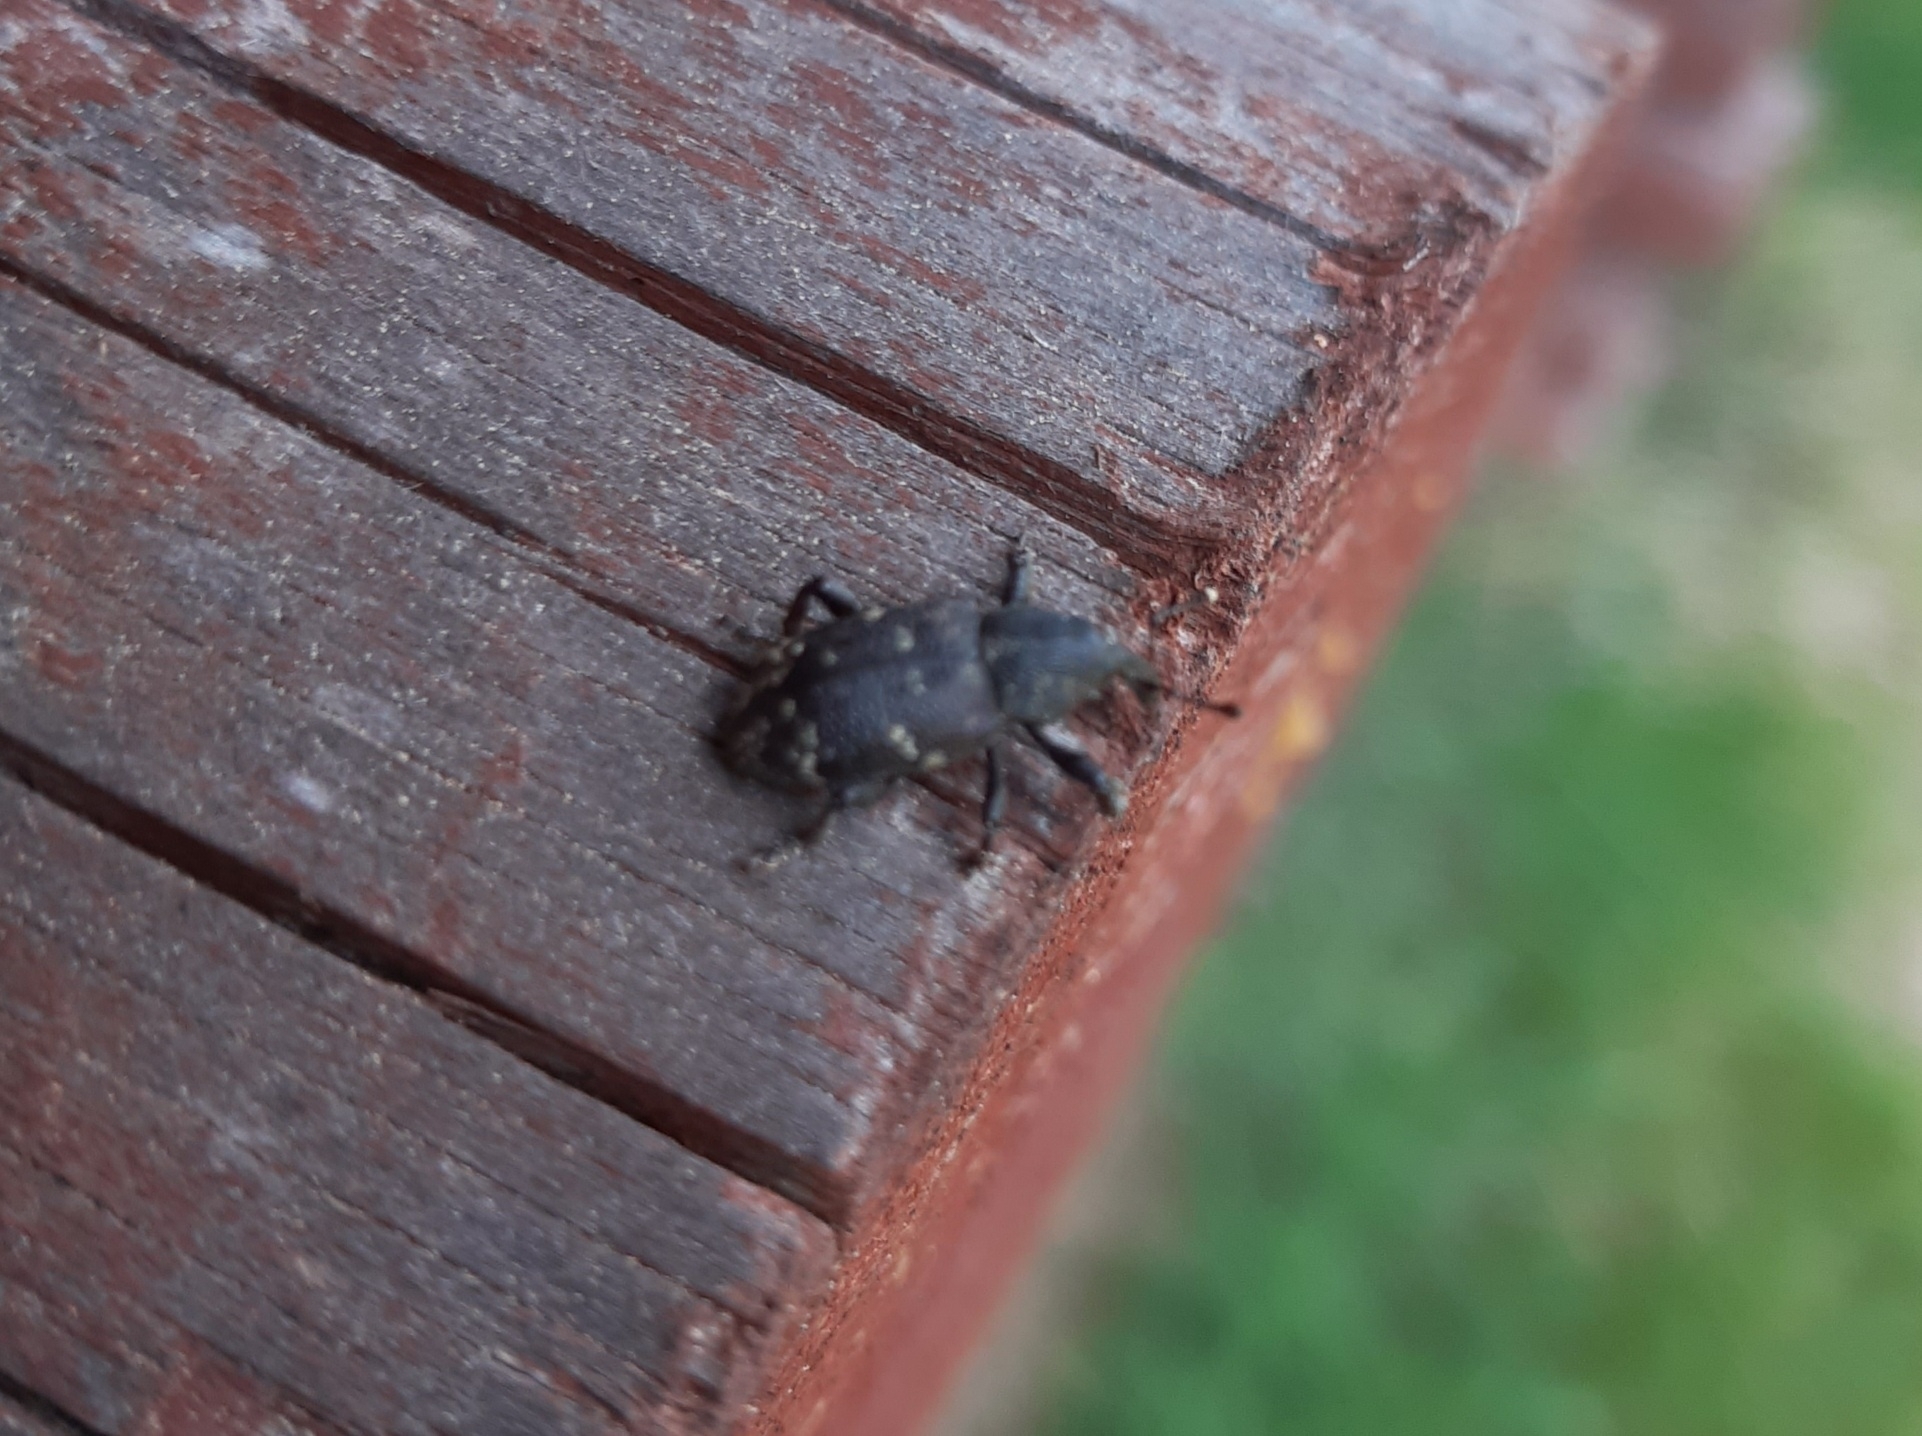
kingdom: Animalia
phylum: Arthropoda
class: Insecta
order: Coleoptera
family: Curculionidae
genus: Hylobius
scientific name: Hylobius abietis
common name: Large pine weevil
